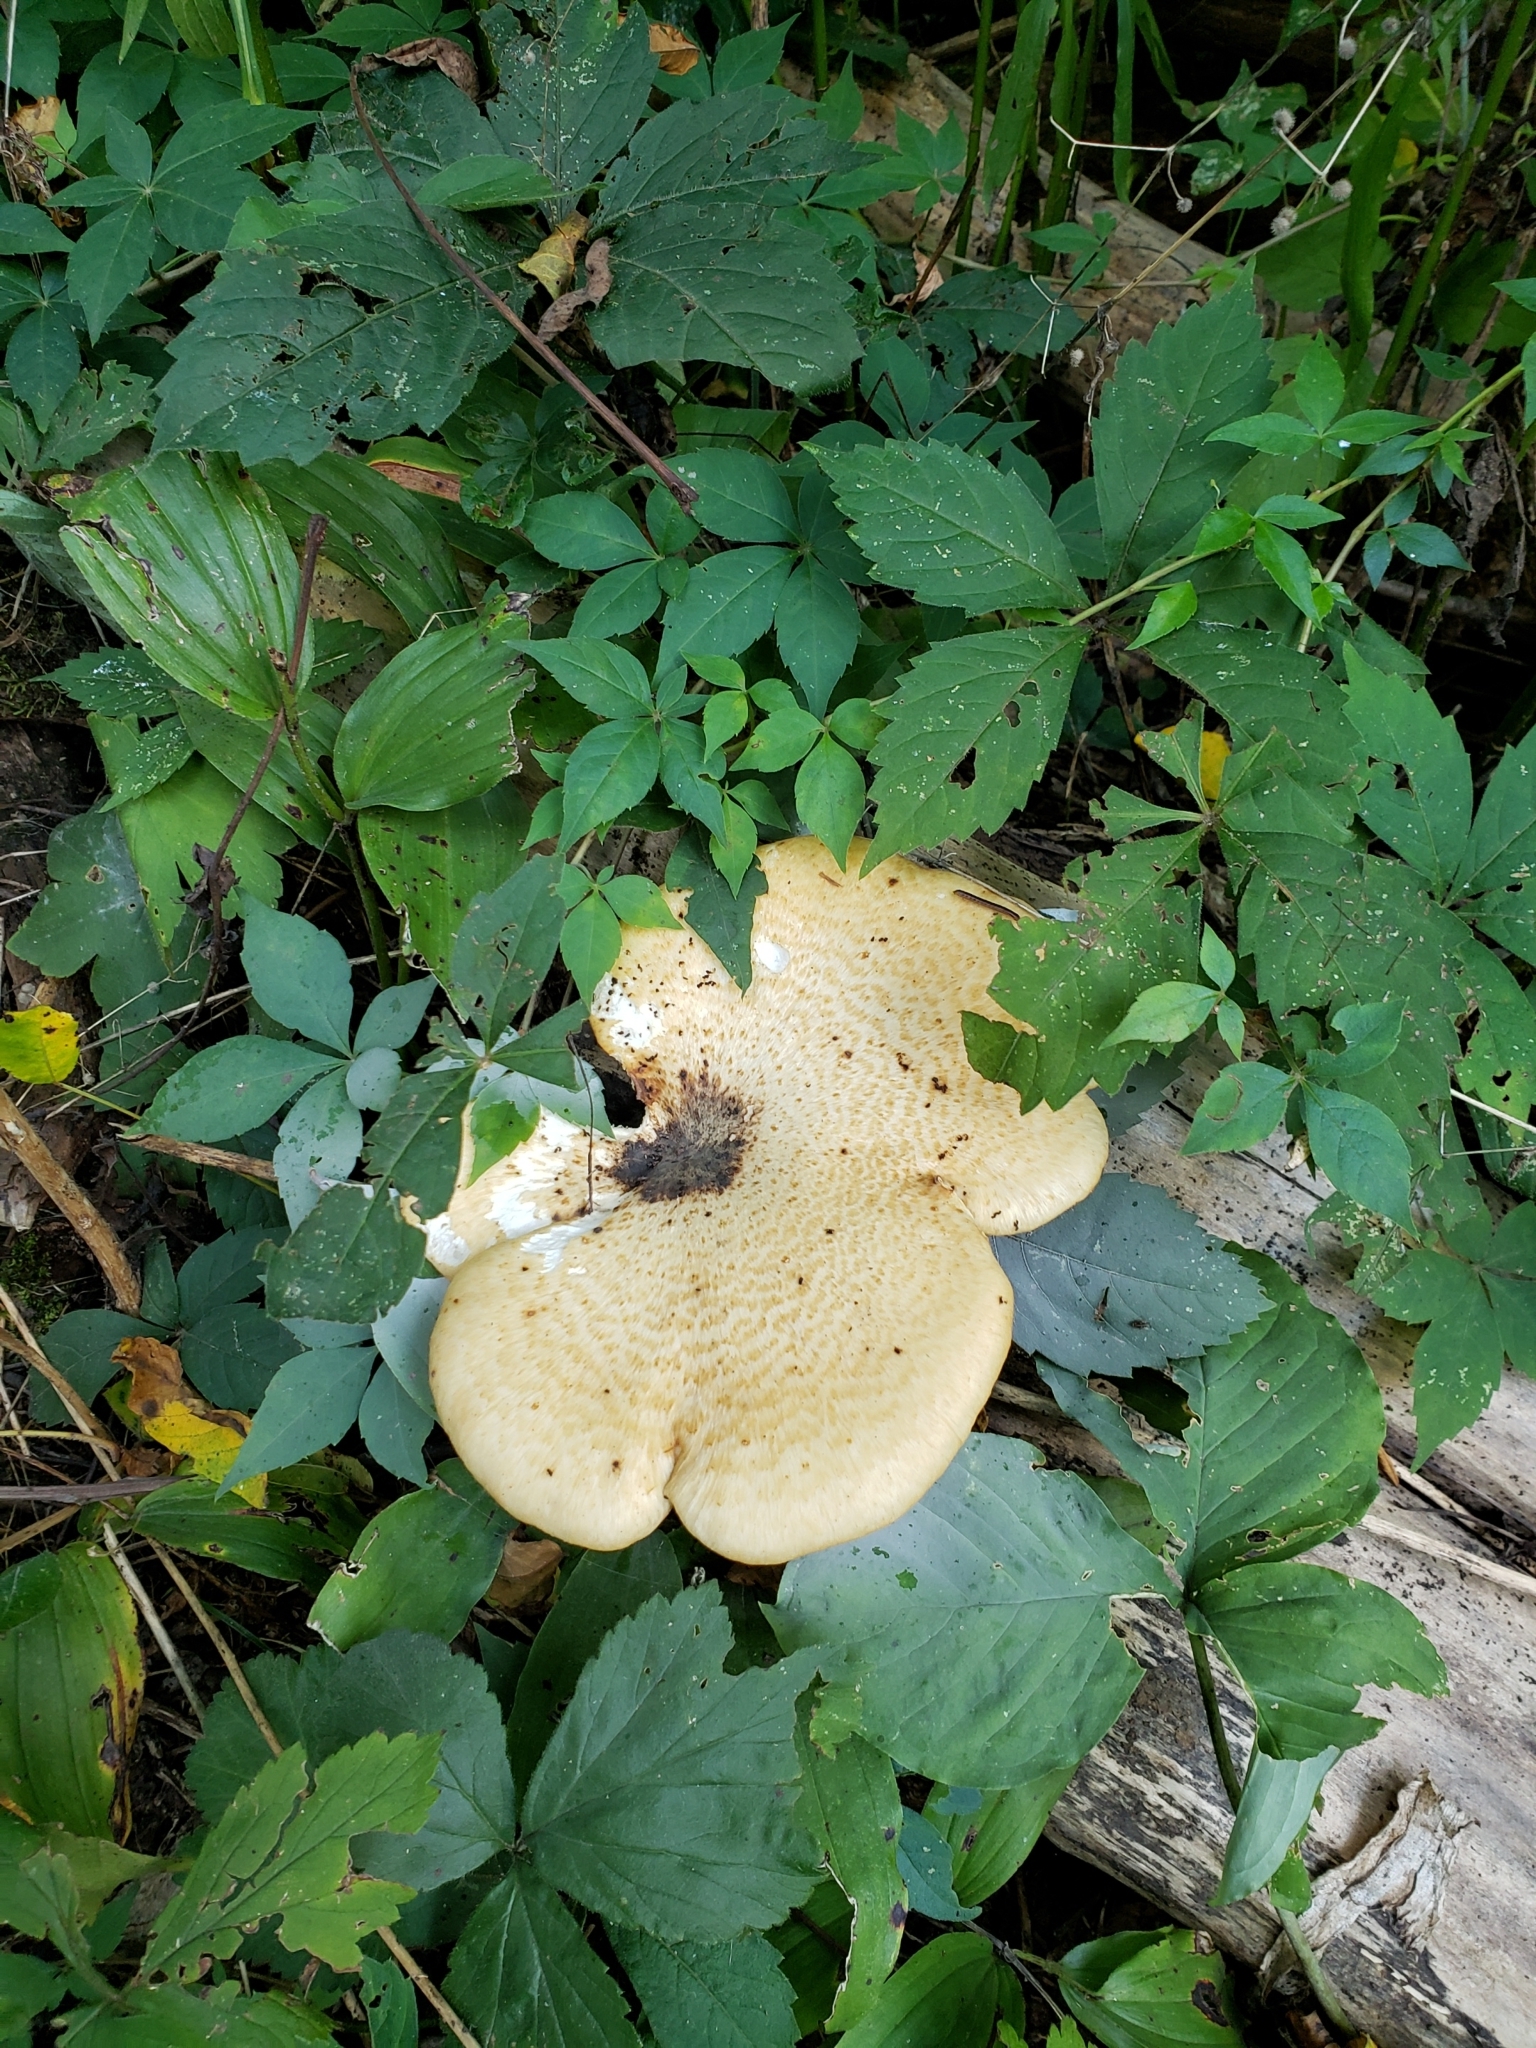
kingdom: Fungi
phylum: Basidiomycota
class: Agaricomycetes
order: Polyporales
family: Polyporaceae
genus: Cerioporus
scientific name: Cerioporus squamosus
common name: Dryad's saddle
